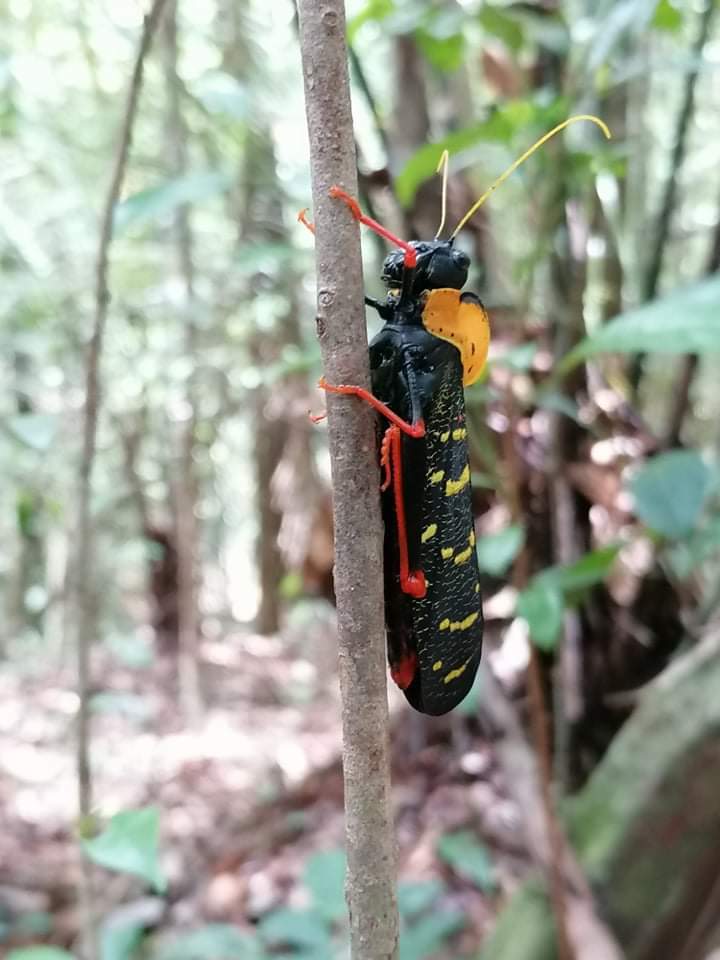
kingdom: Animalia
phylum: Arthropoda
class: Insecta
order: Orthoptera
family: Acrididae
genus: Monachidium
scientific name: Monachidium lunum
